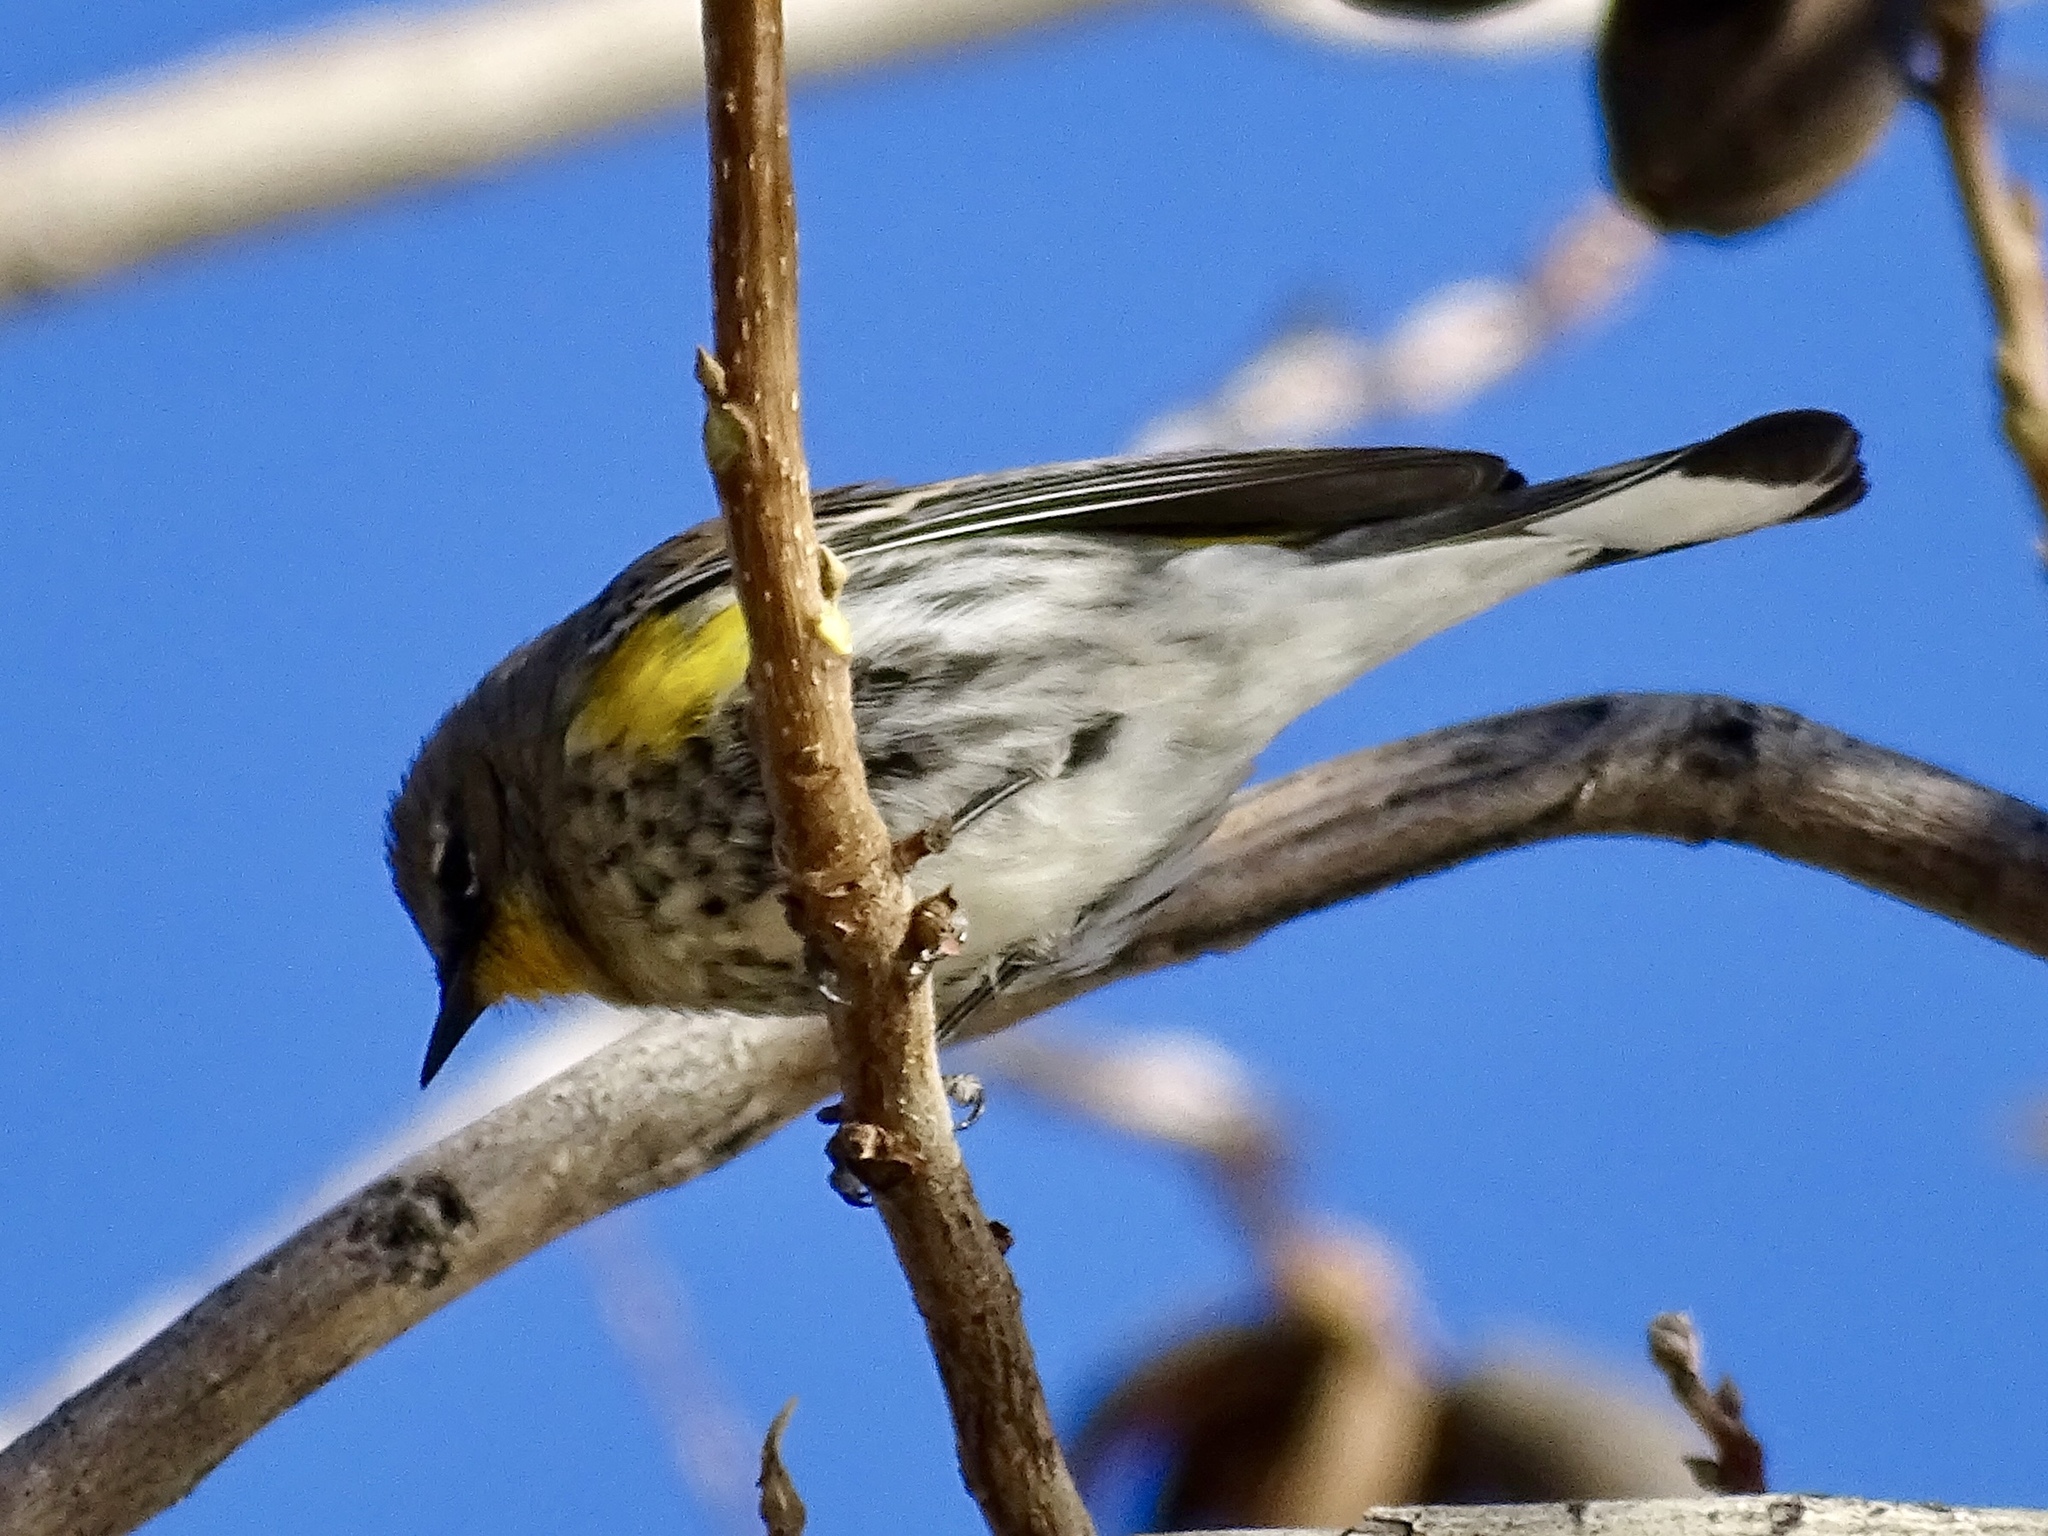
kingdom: Animalia
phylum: Chordata
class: Aves
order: Passeriformes
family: Parulidae
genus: Setophaga
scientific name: Setophaga coronata
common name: Myrtle warbler
